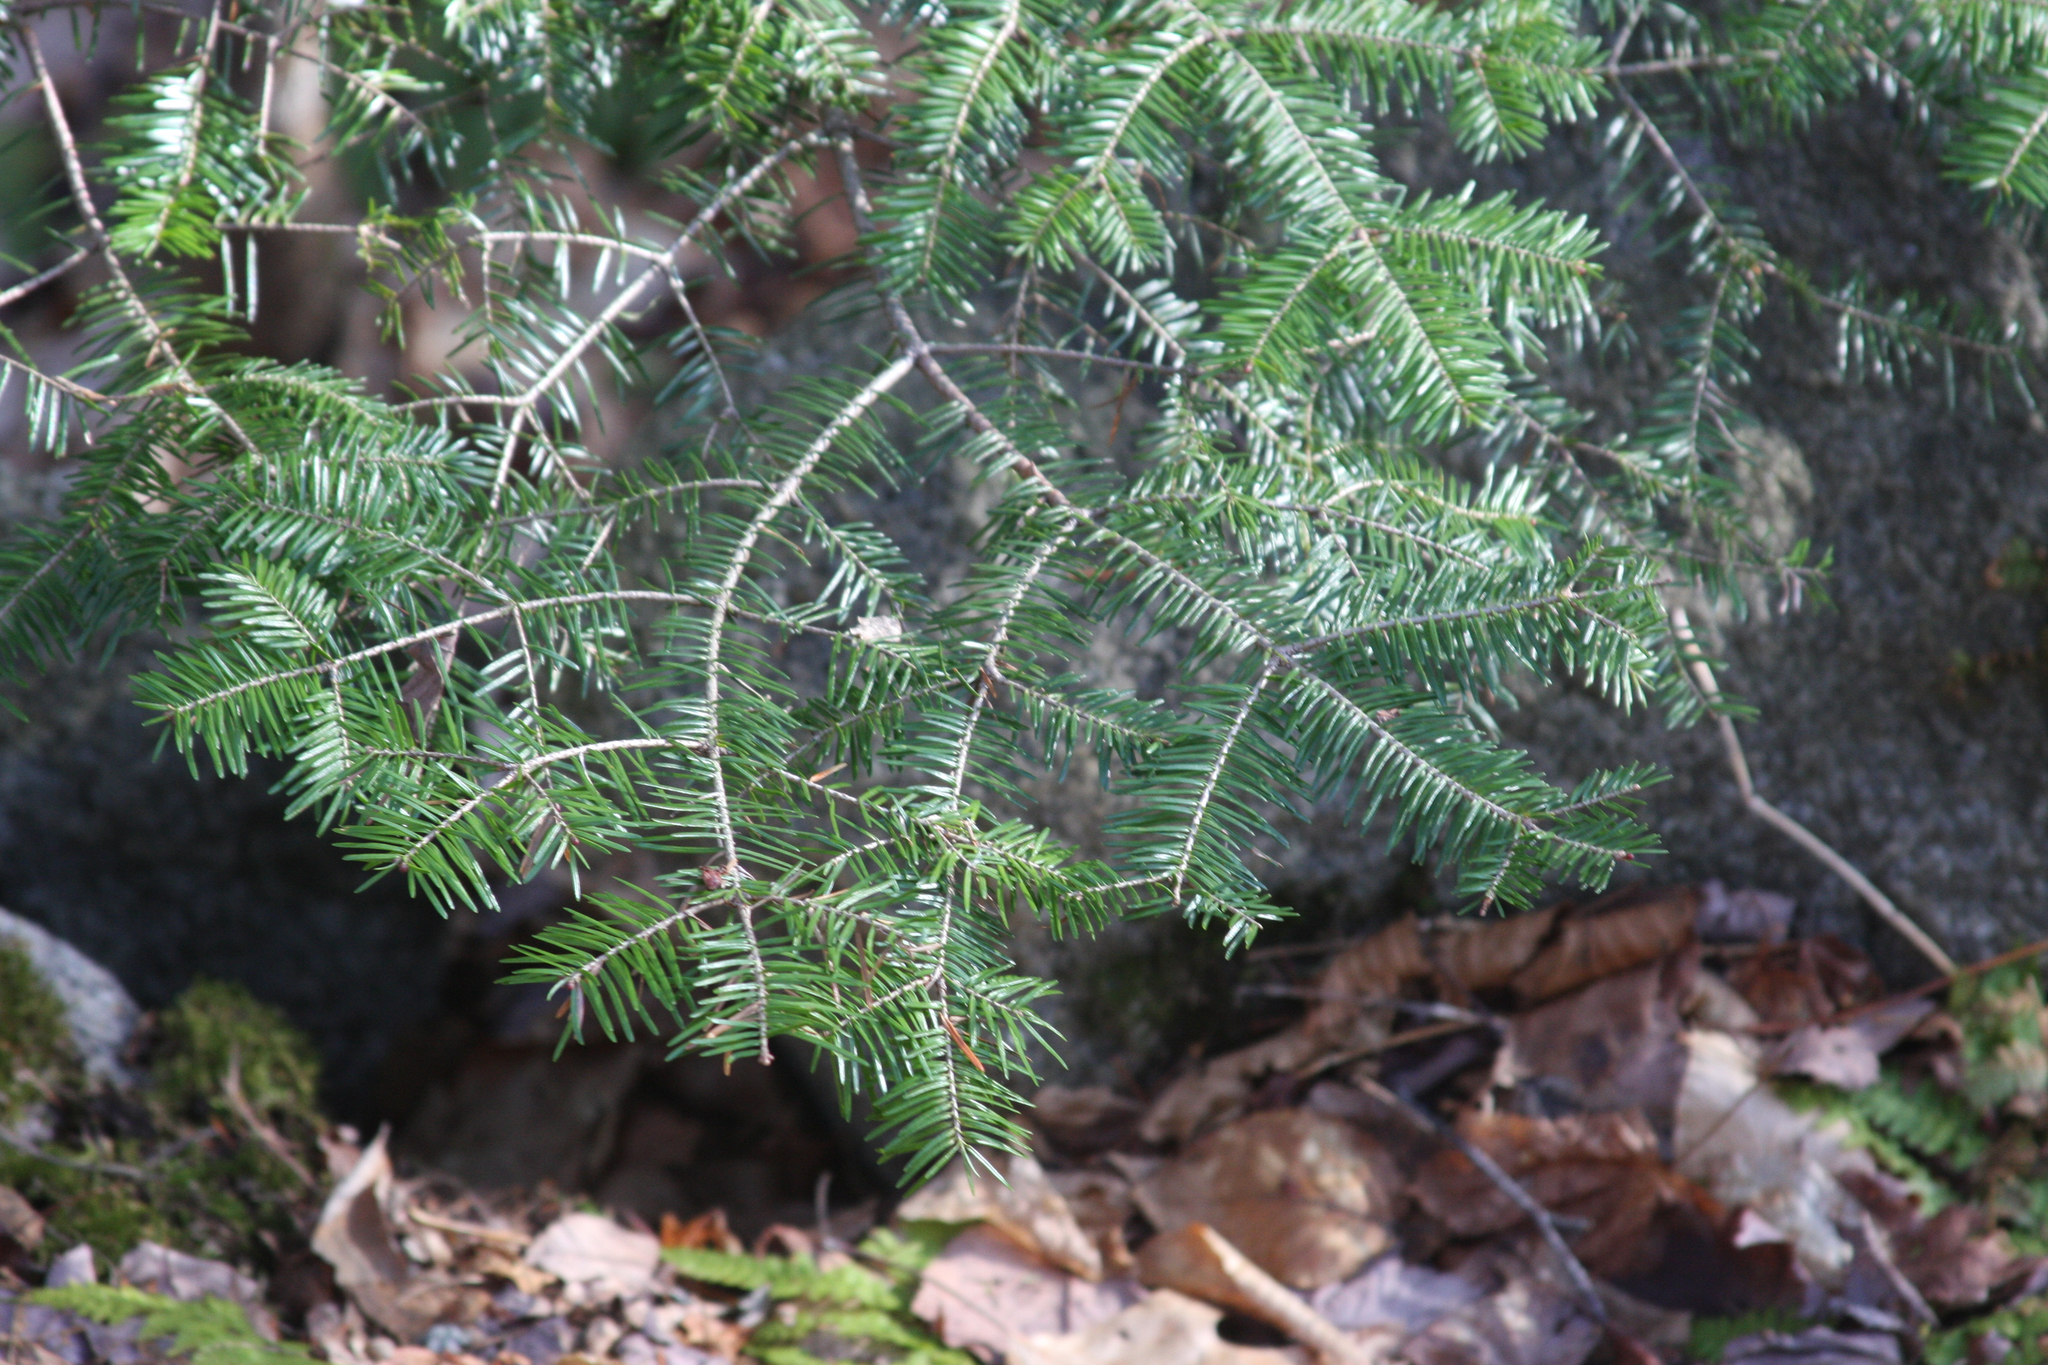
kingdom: Plantae
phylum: Tracheophyta
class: Pinopsida
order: Pinales
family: Pinaceae
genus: Abies
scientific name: Abies balsamea
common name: Balsam fir
